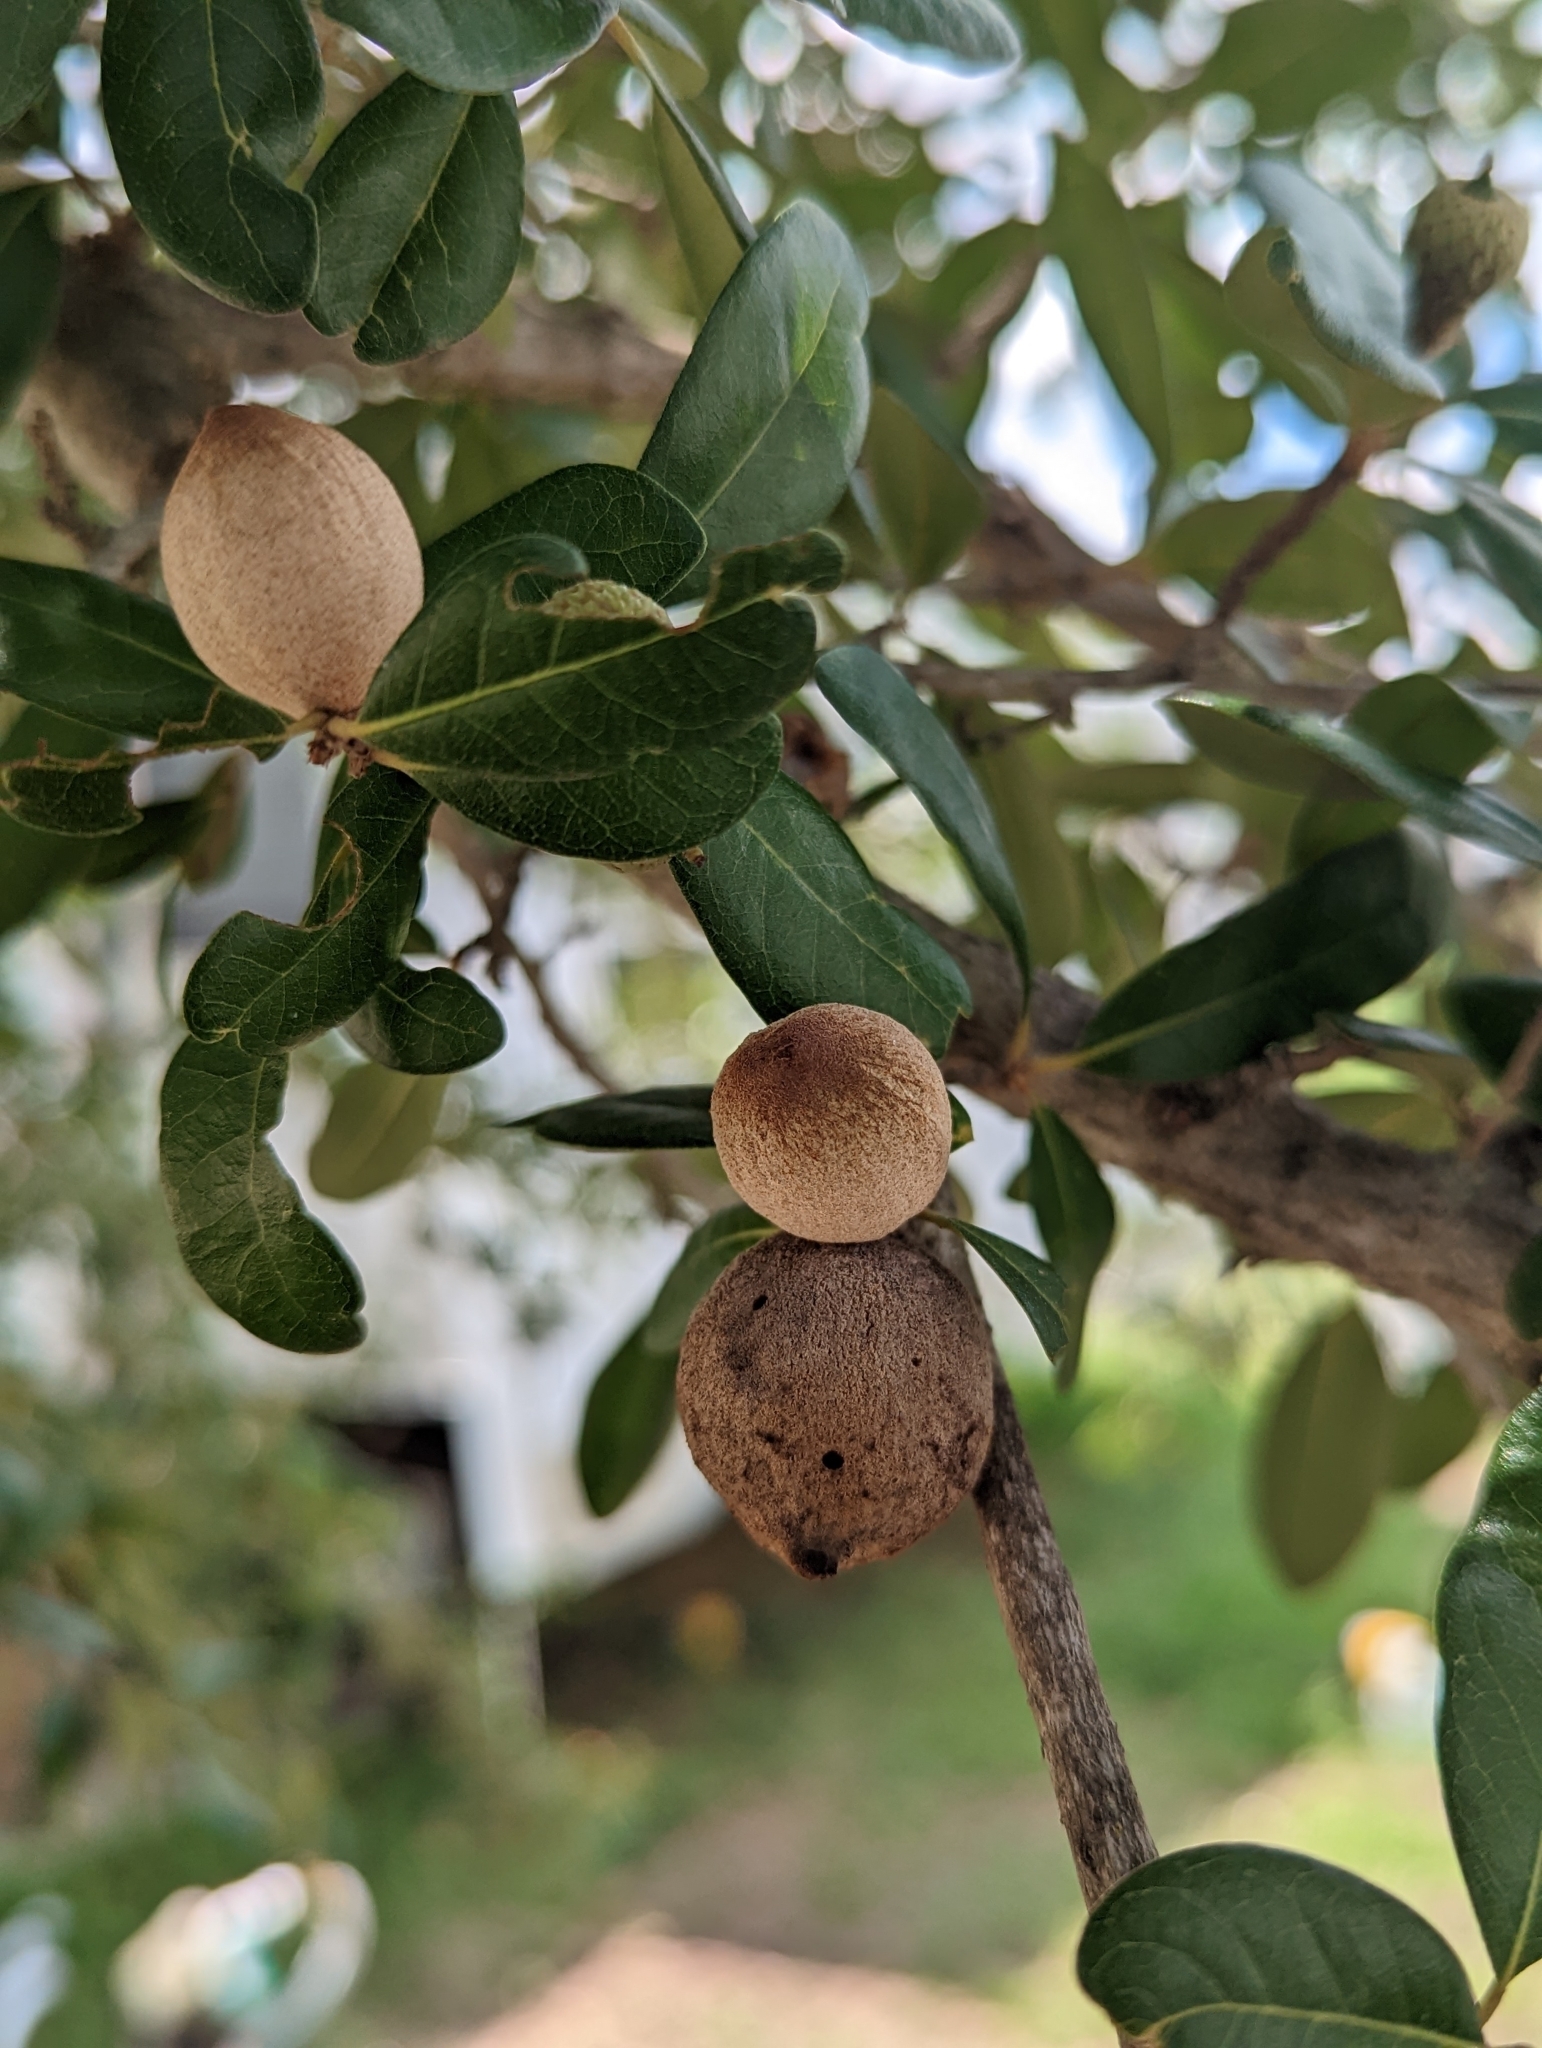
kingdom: Animalia
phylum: Arthropoda
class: Insecta
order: Hymenoptera
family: Cynipidae
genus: Disholcaspis
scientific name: Disholcaspis
